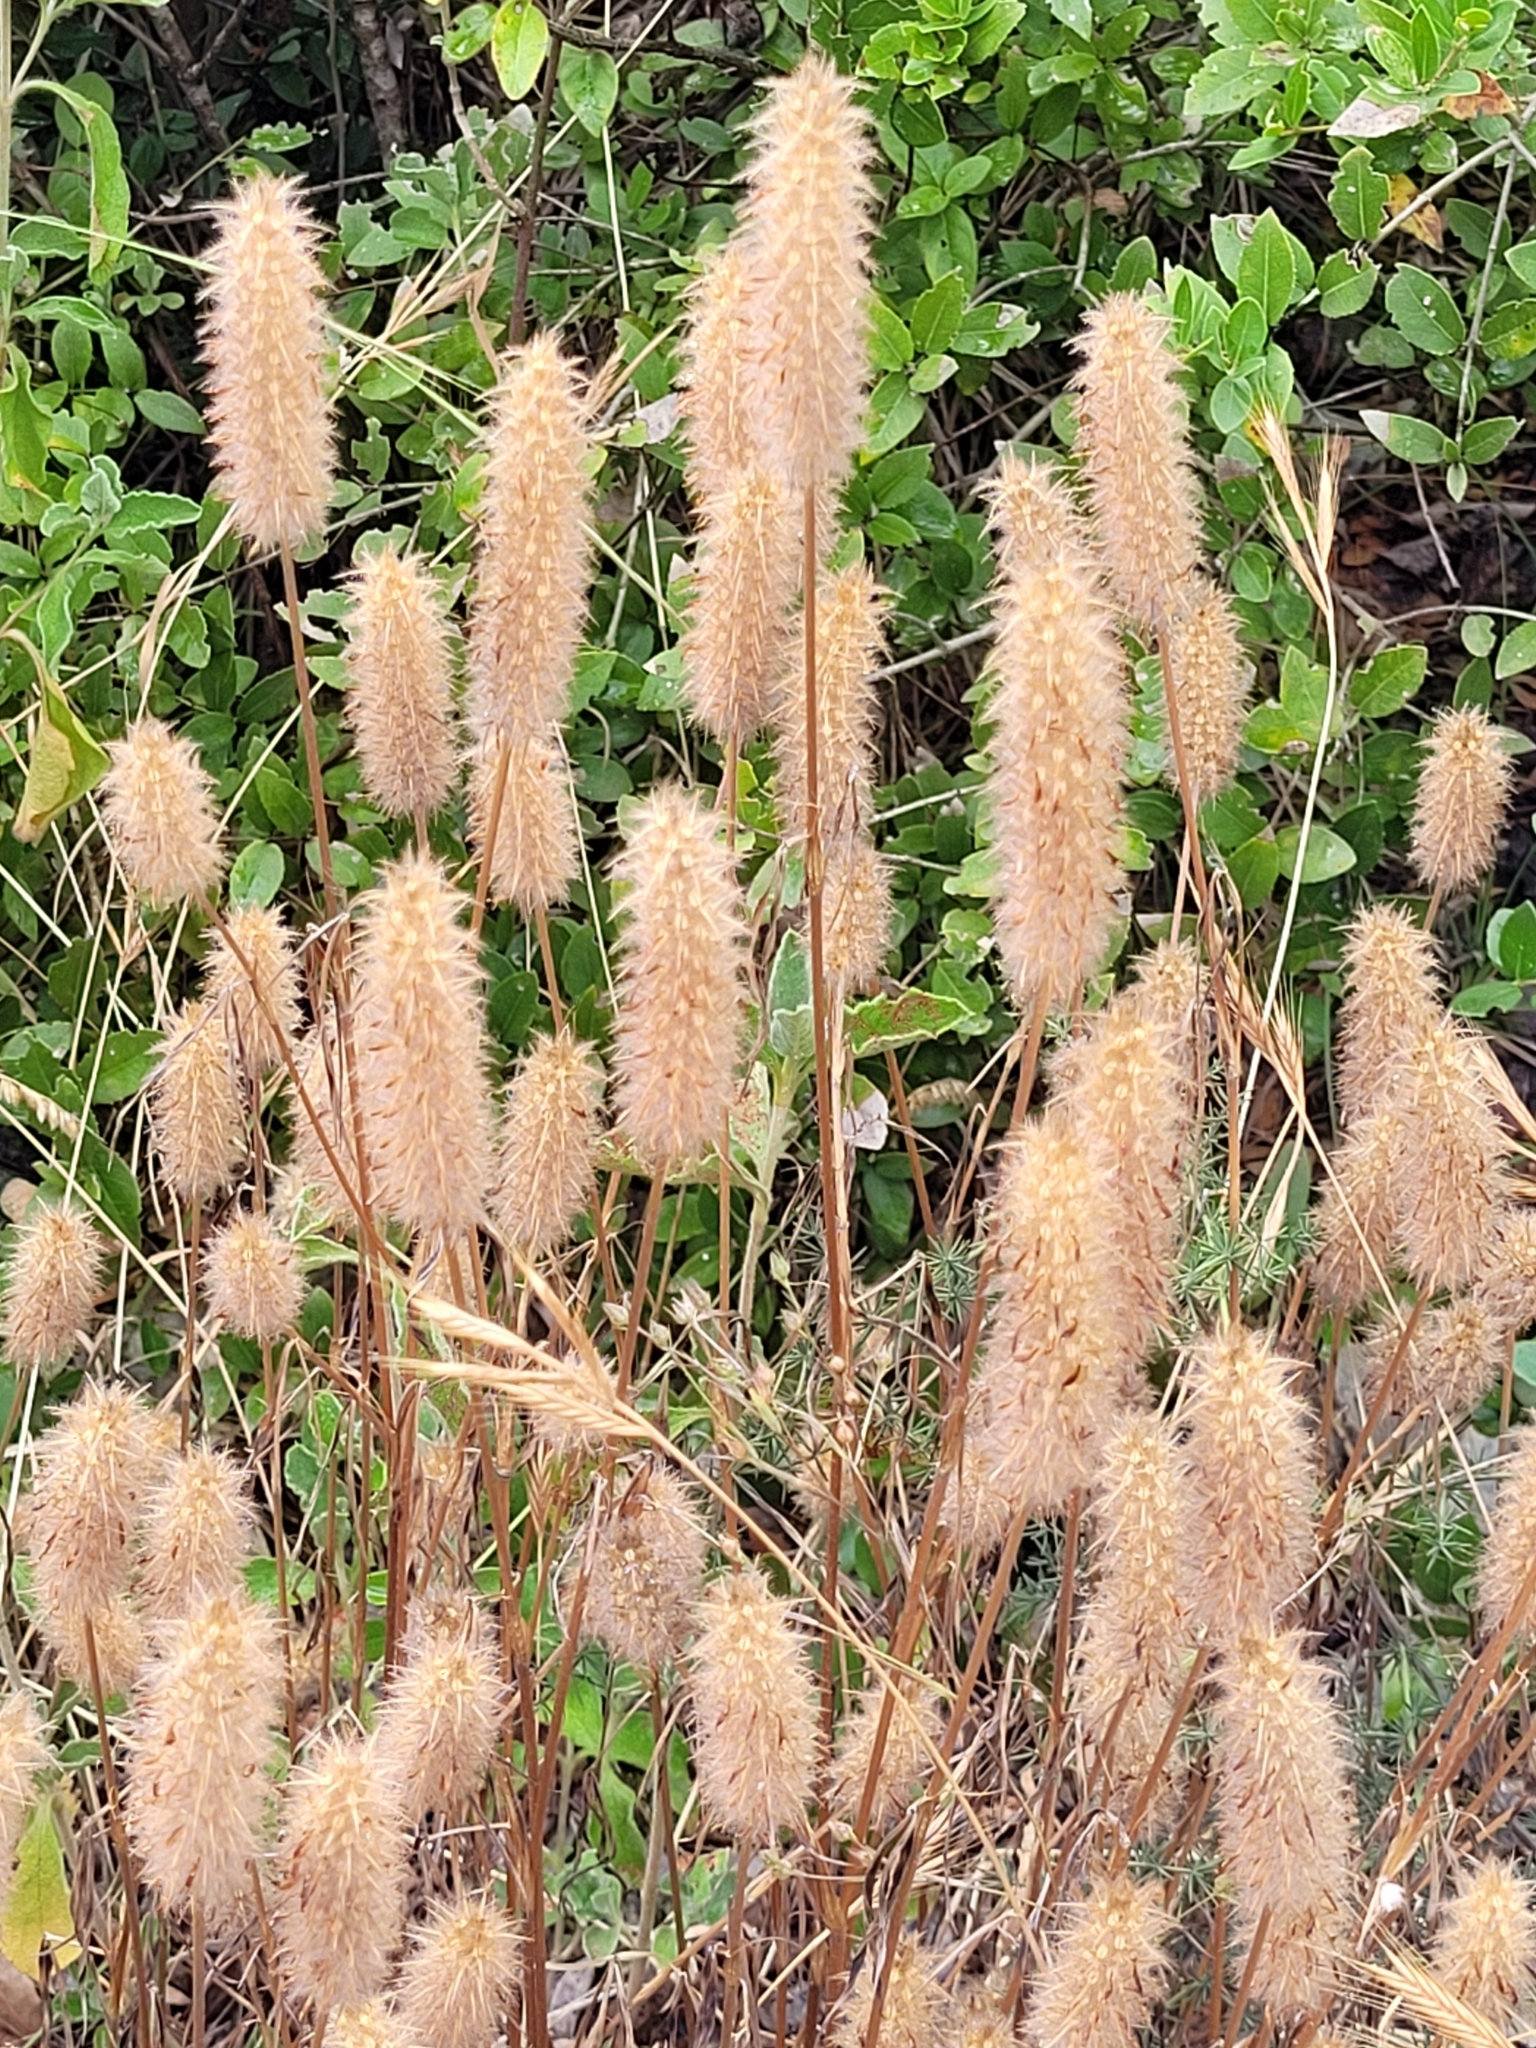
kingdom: Plantae
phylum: Tracheophyta
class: Magnoliopsida
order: Fabales
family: Fabaceae
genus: Trifolium
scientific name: Trifolium angustifolium
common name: Narrow clover
